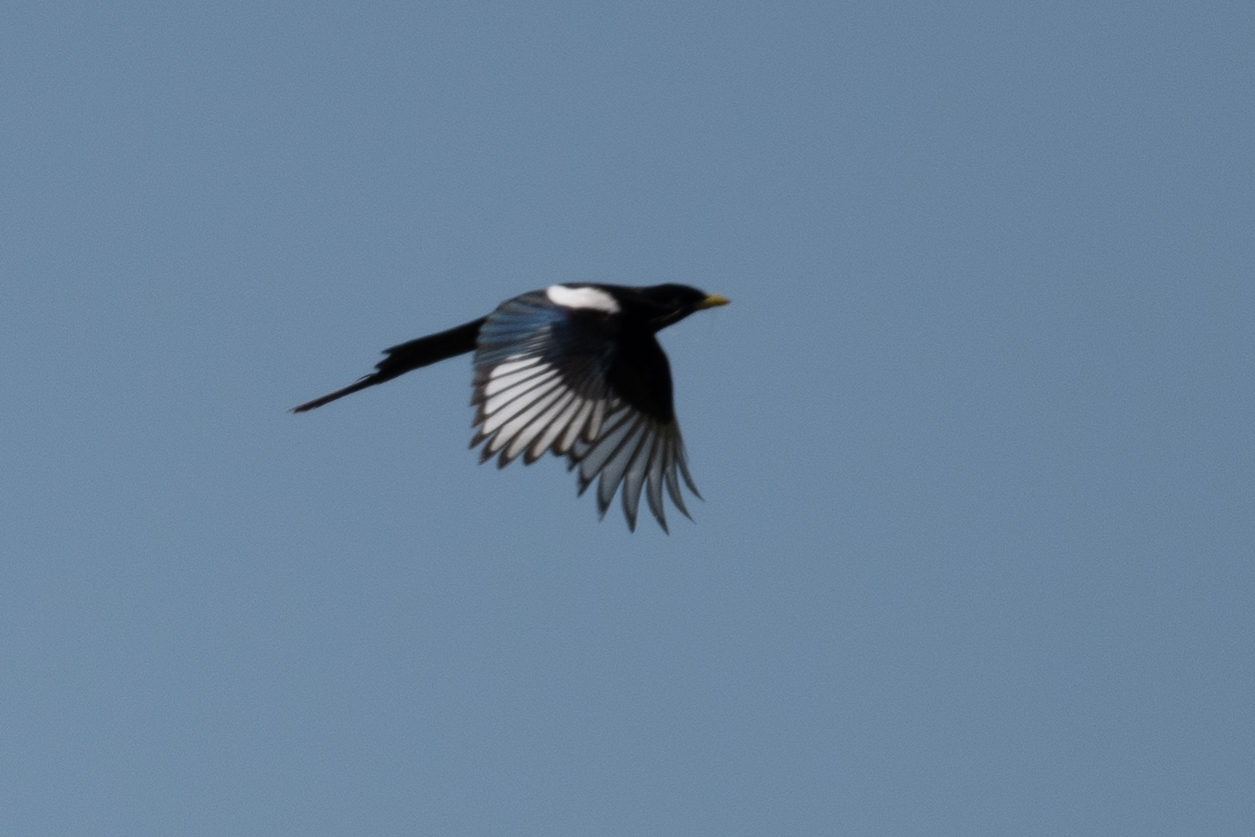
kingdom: Animalia
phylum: Chordata
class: Aves
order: Passeriformes
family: Corvidae
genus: Pica
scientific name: Pica nuttalli
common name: Yellow-billed magpie
